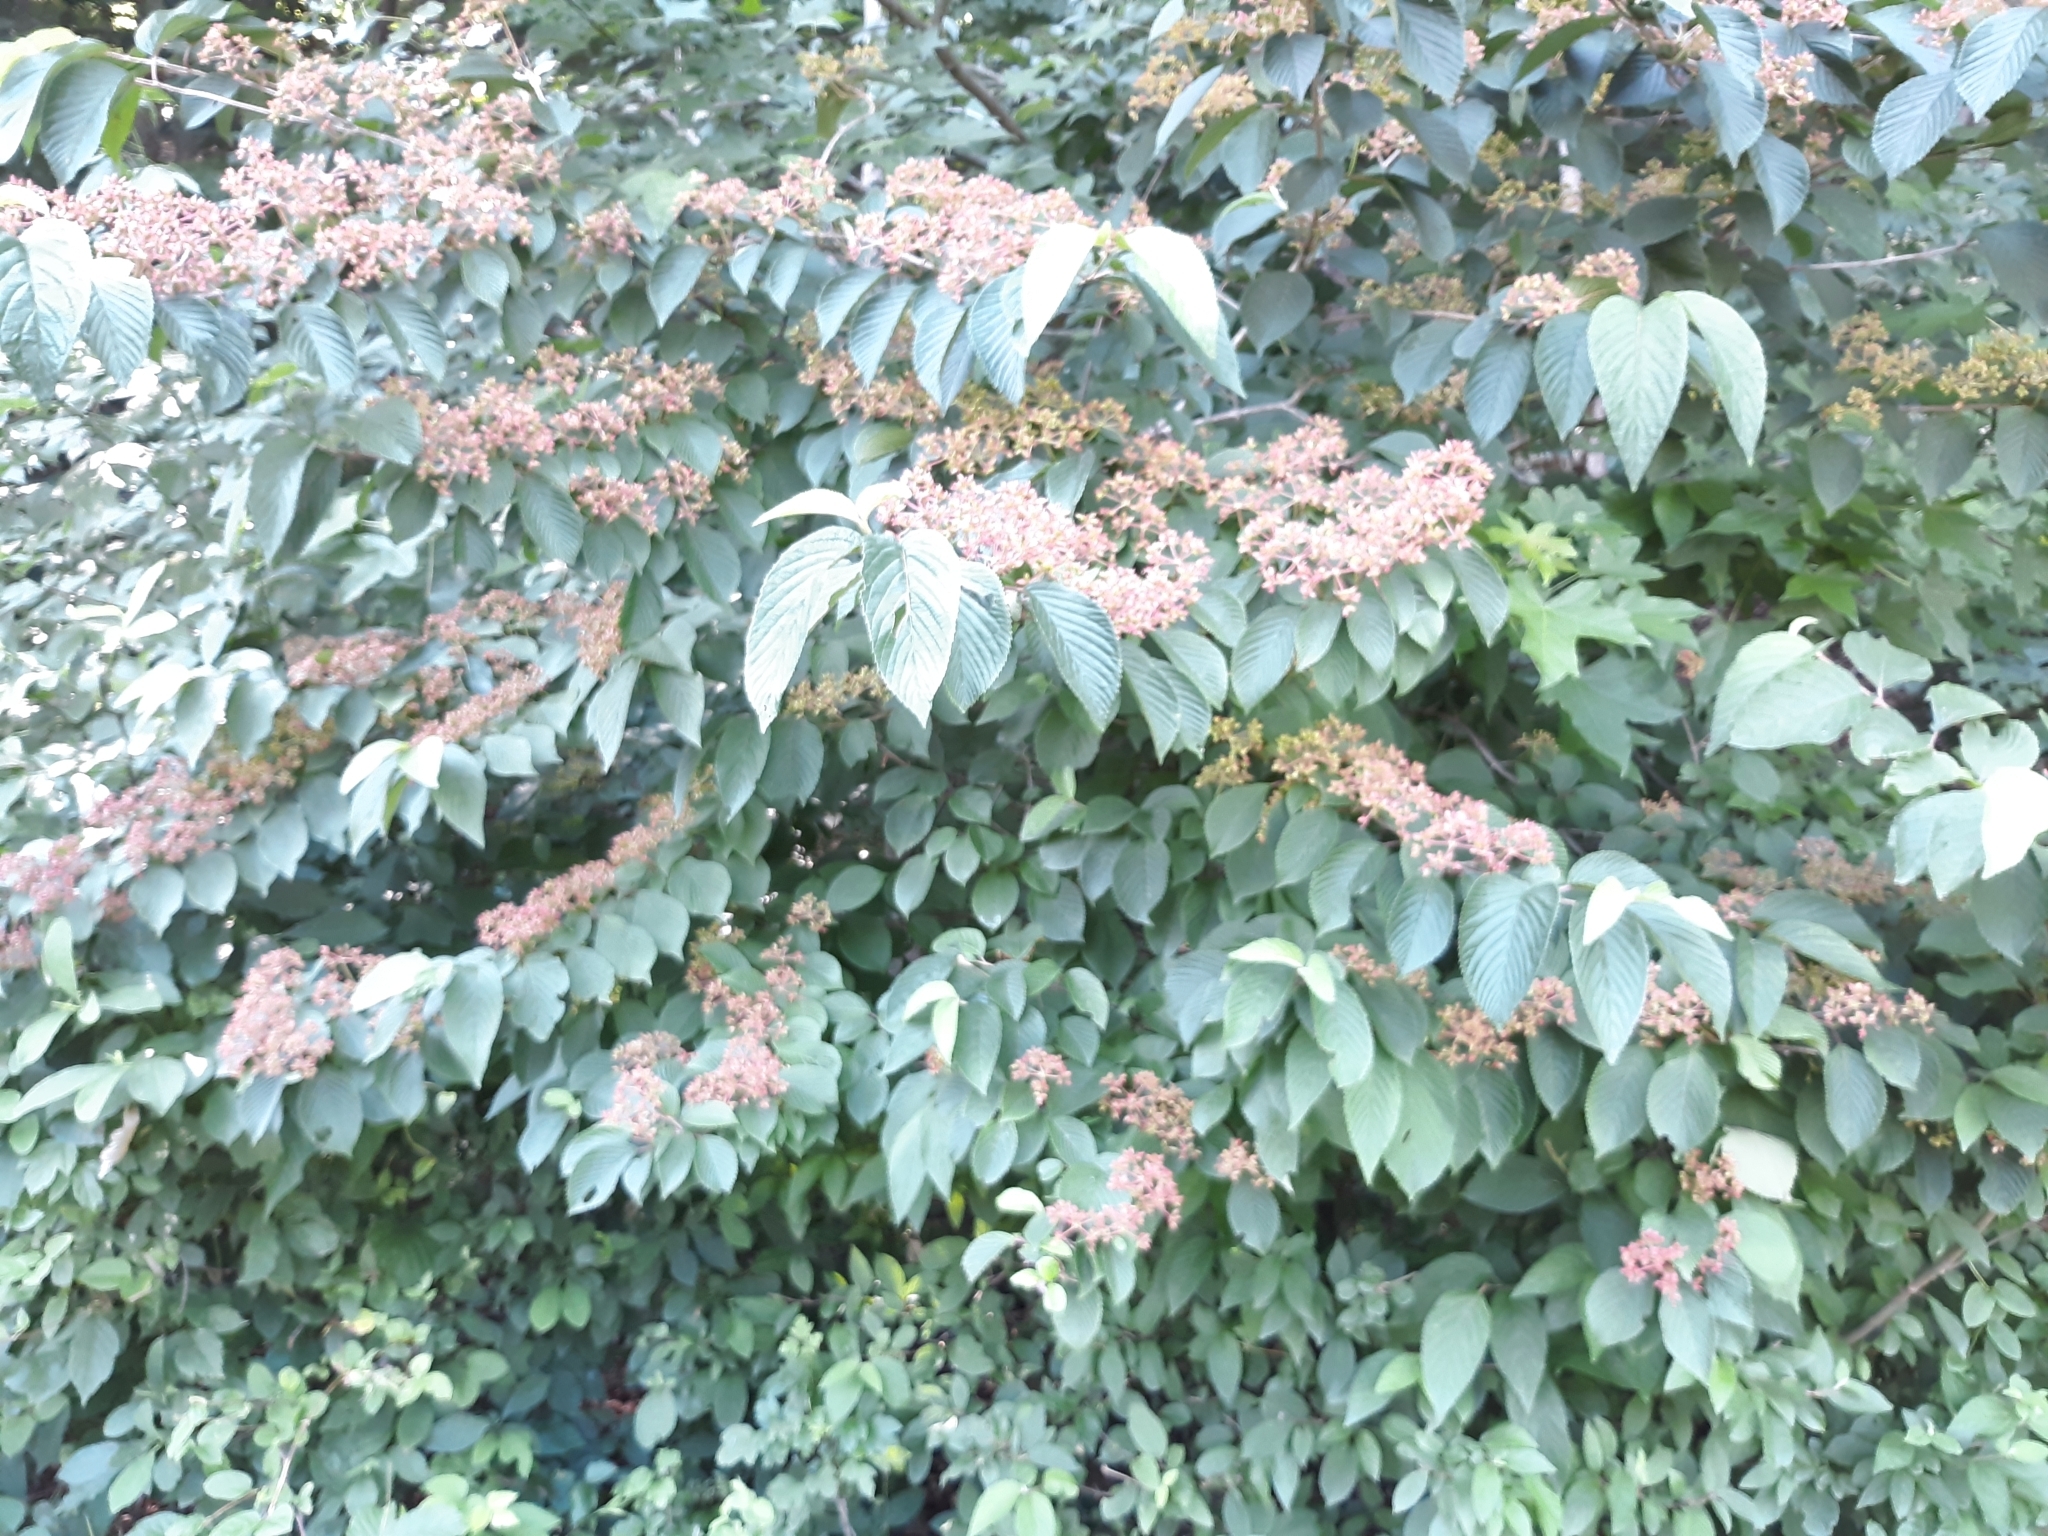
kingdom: Plantae
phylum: Tracheophyta
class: Magnoliopsida
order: Dipsacales
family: Viburnaceae
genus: Viburnum
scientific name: Viburnum plicatum
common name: Japanese snowball
